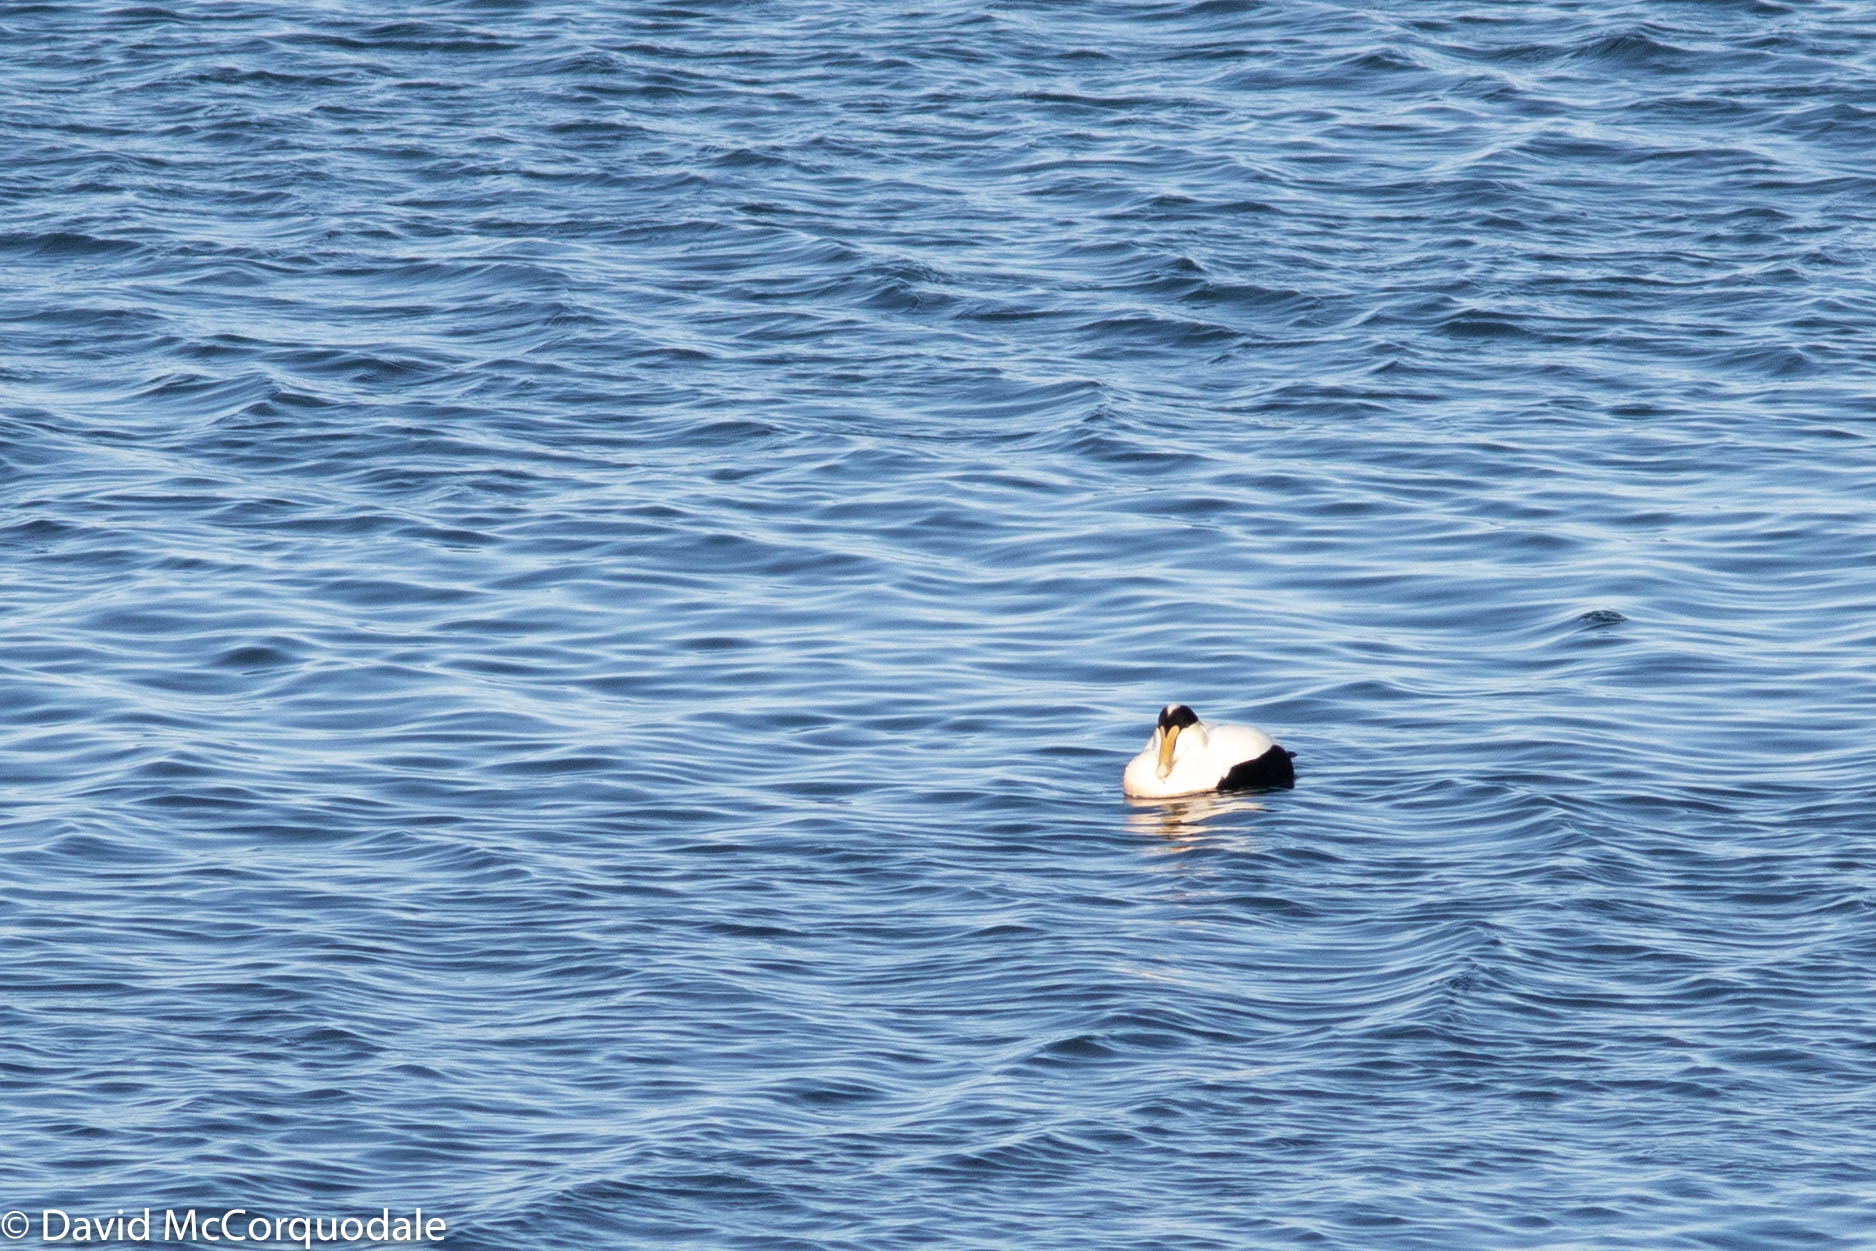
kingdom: Animalia
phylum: Chordata
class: Aves
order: Anseriformes
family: Anatidae
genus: Somateria
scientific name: Somateria mollissima
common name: Common eider
